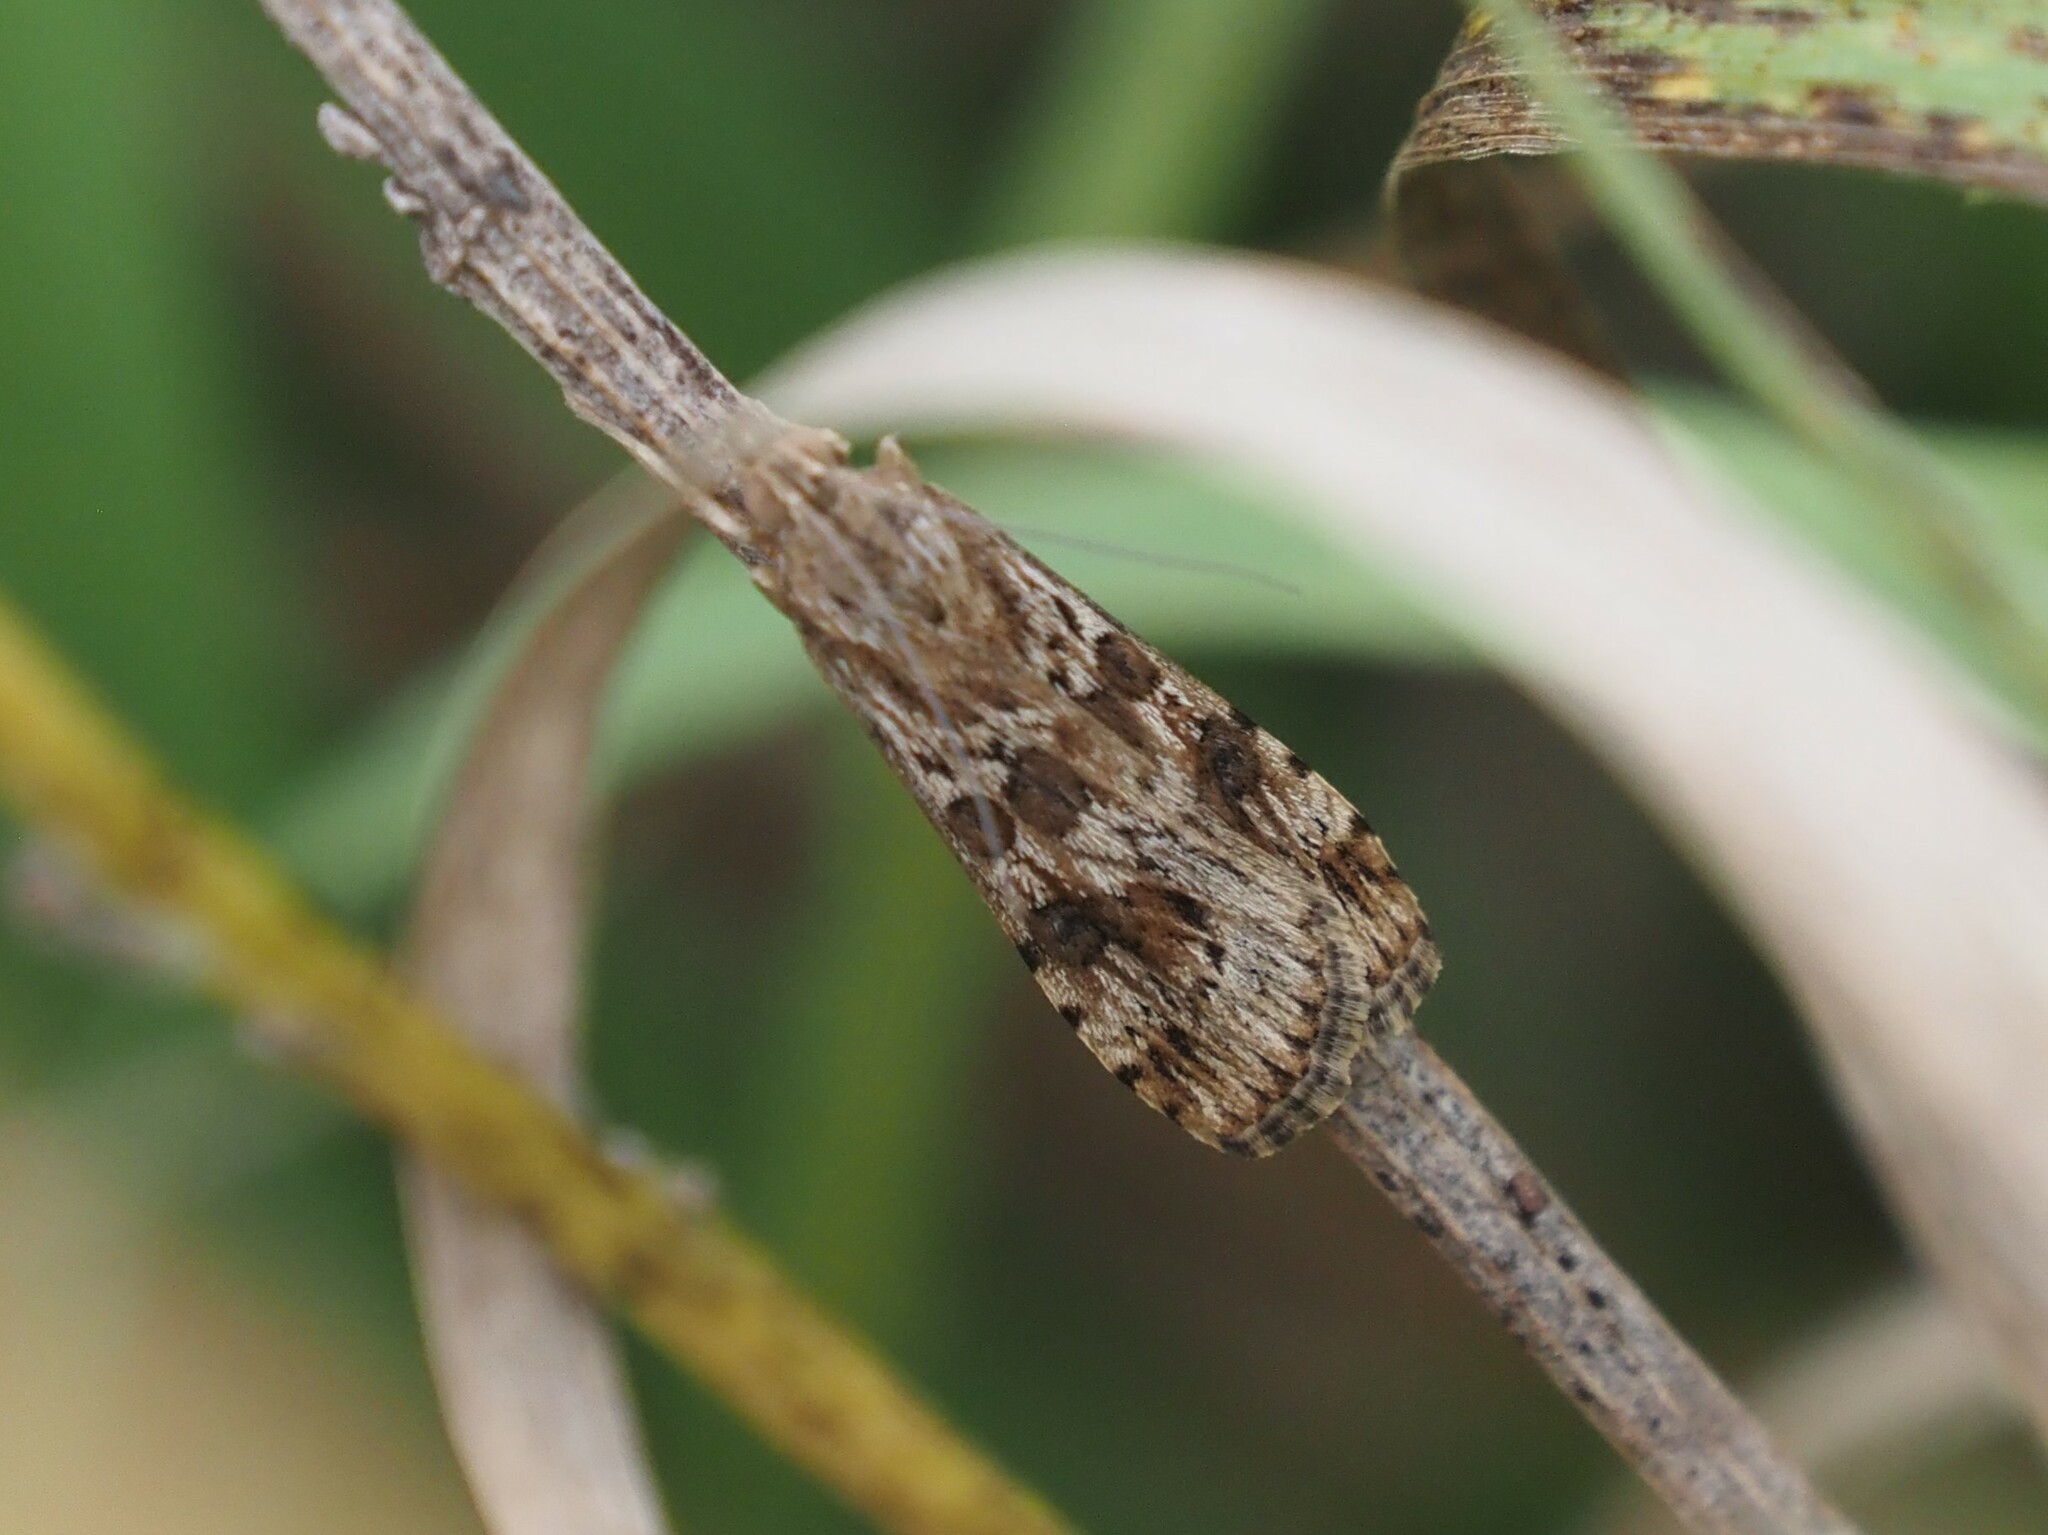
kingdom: Animalia
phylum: Arthropoda
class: Insecta
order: Lepidoptera
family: Crambidae
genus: Nomophila
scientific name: Nomophila nearctica
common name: American rush veneer
